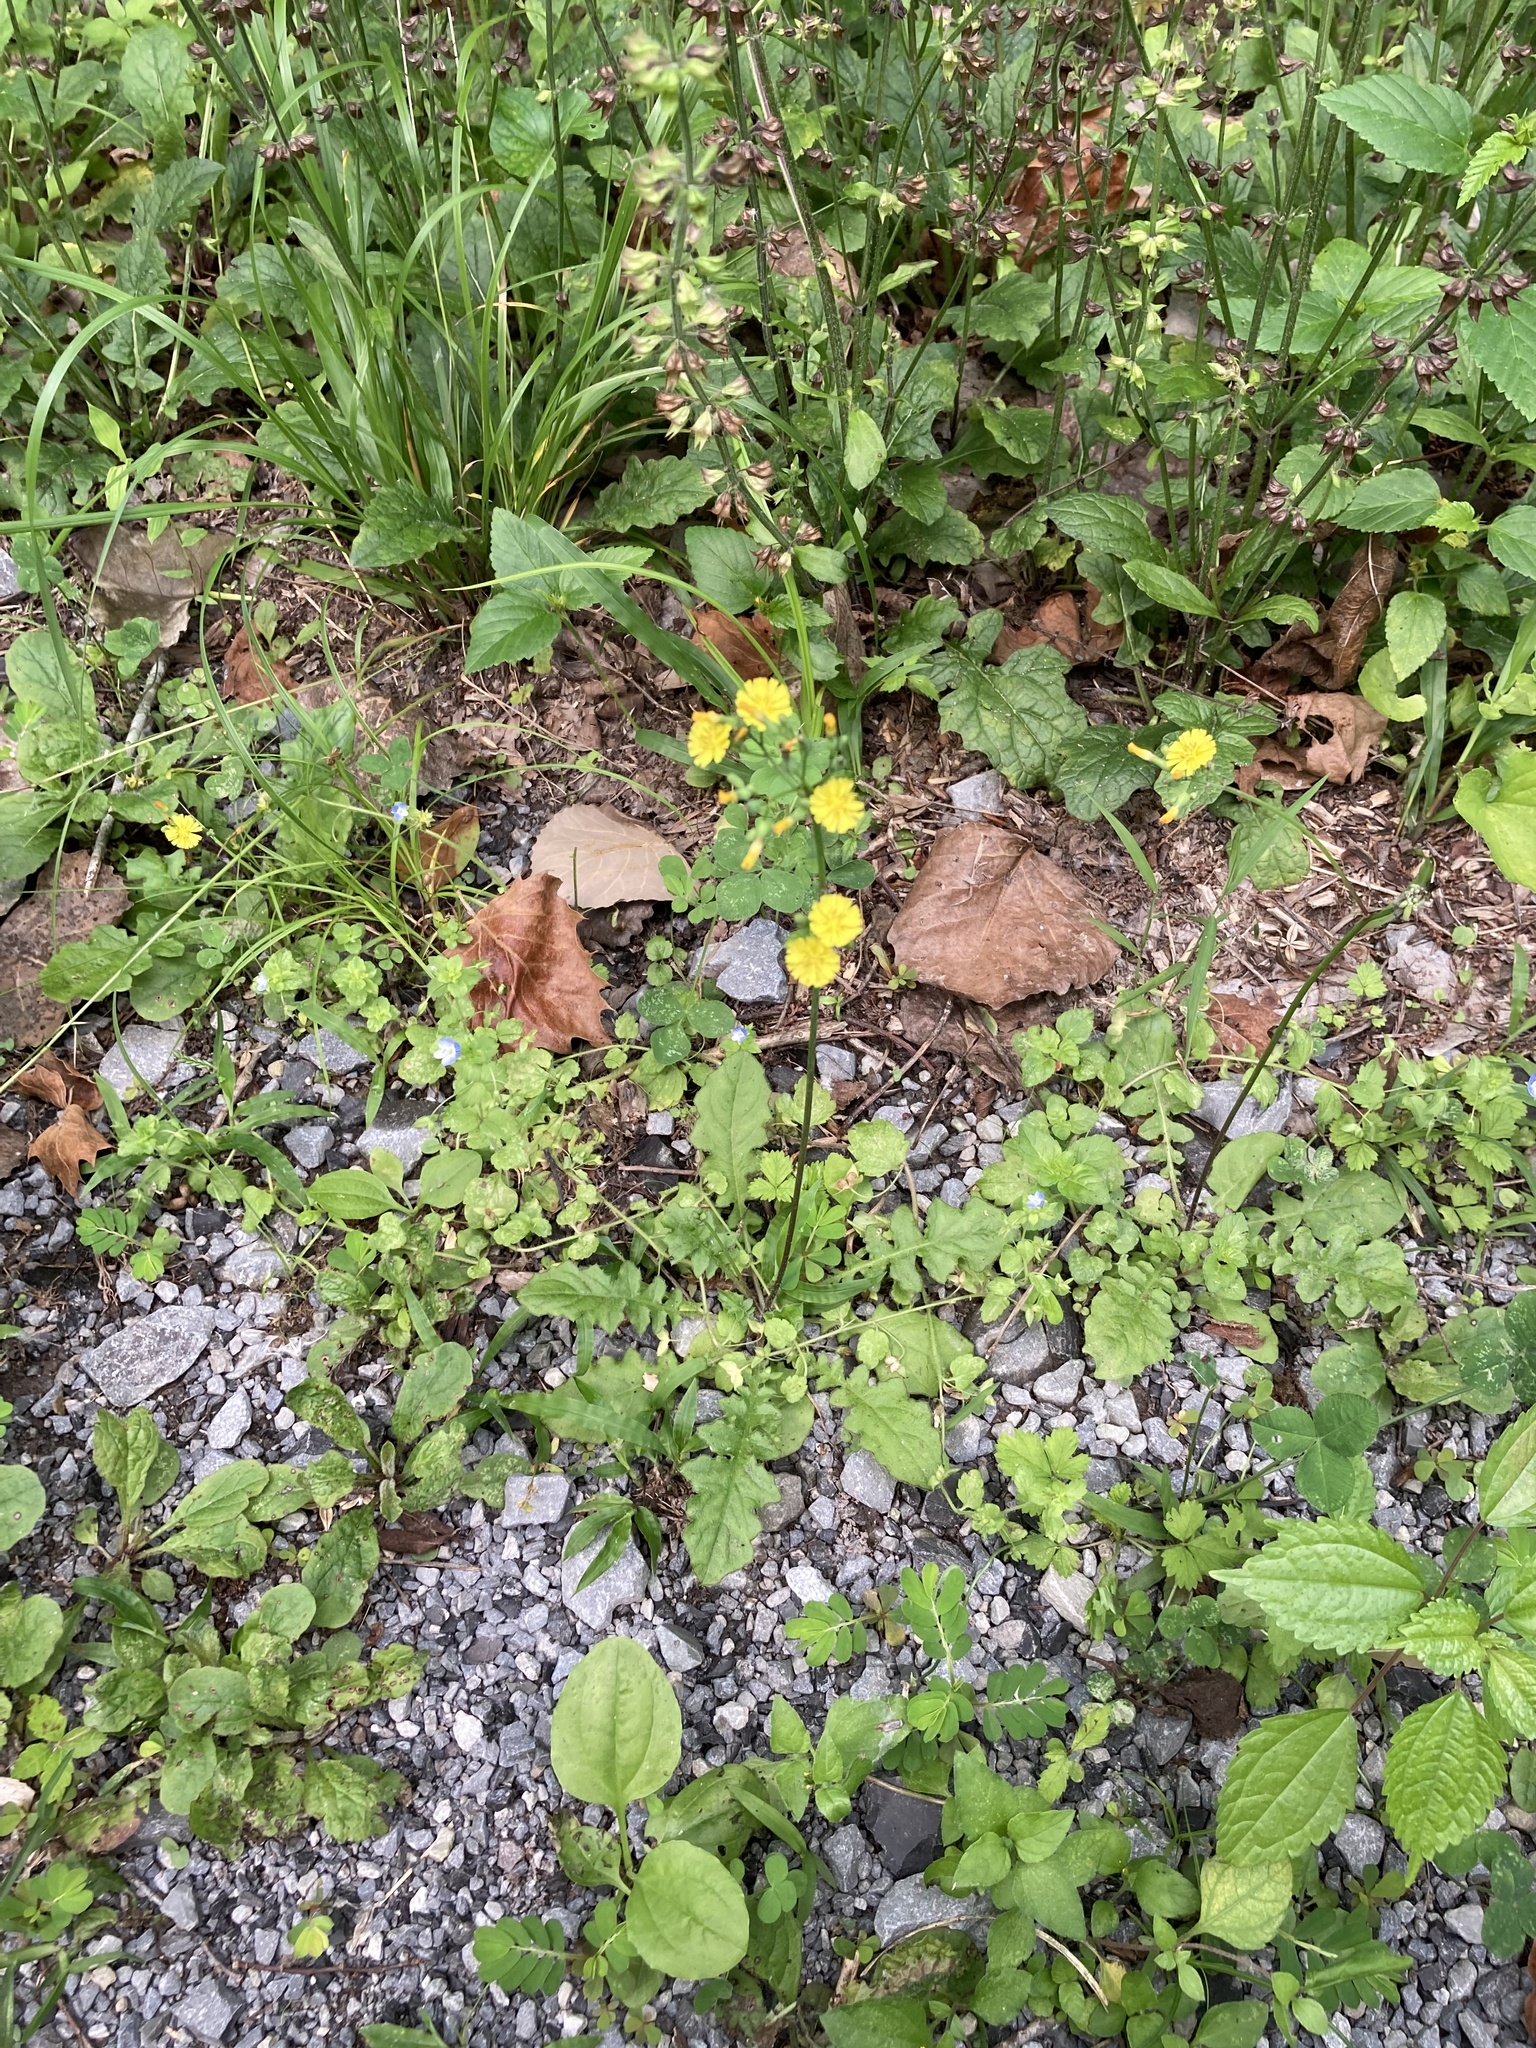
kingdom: Plantae
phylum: Tracheophyta
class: Magnoliopsida
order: Asterales
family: Asteraceae
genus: Youngia
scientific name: Youngia japonica
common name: Oriental false hawksbeard
